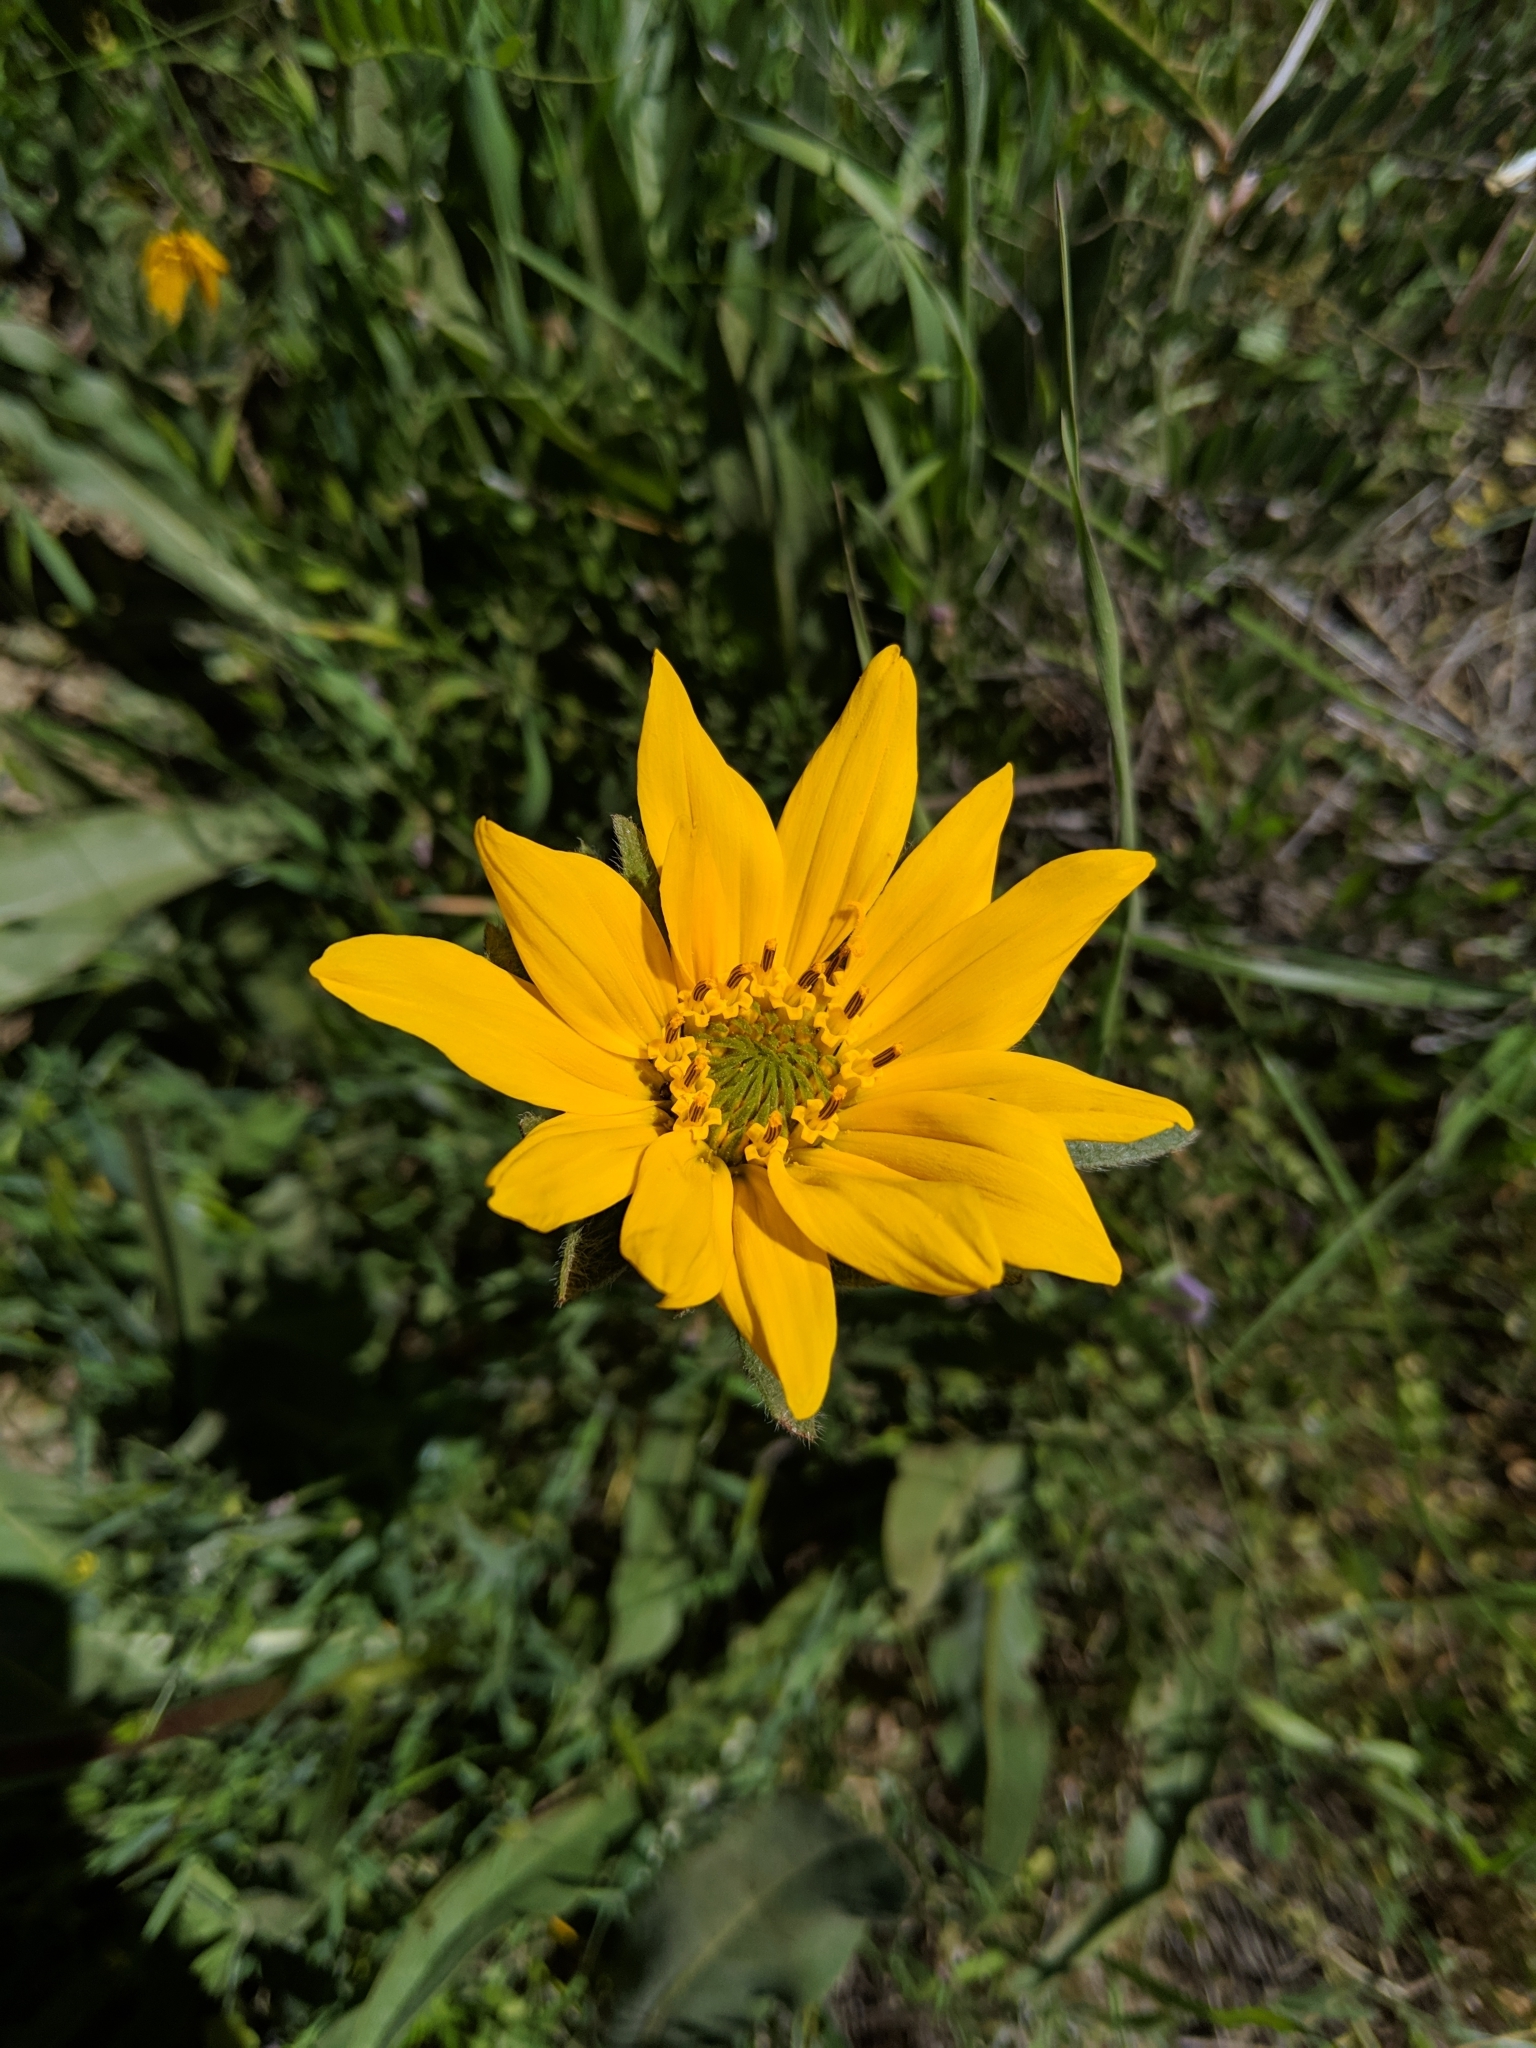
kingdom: Plantae
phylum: Tracheophyta
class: Magnoliopsida
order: Asterales
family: Asteraceae
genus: Wyethia
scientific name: Wyethia angustifolia
